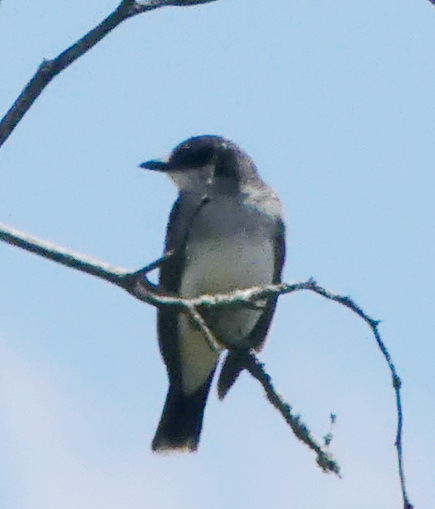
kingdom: Animalia
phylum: Chordata
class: Aves
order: Passeriformes
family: Tyrannidae
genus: Tyrannus
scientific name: Tyrannus tyrannus
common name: Eastern kingbird
